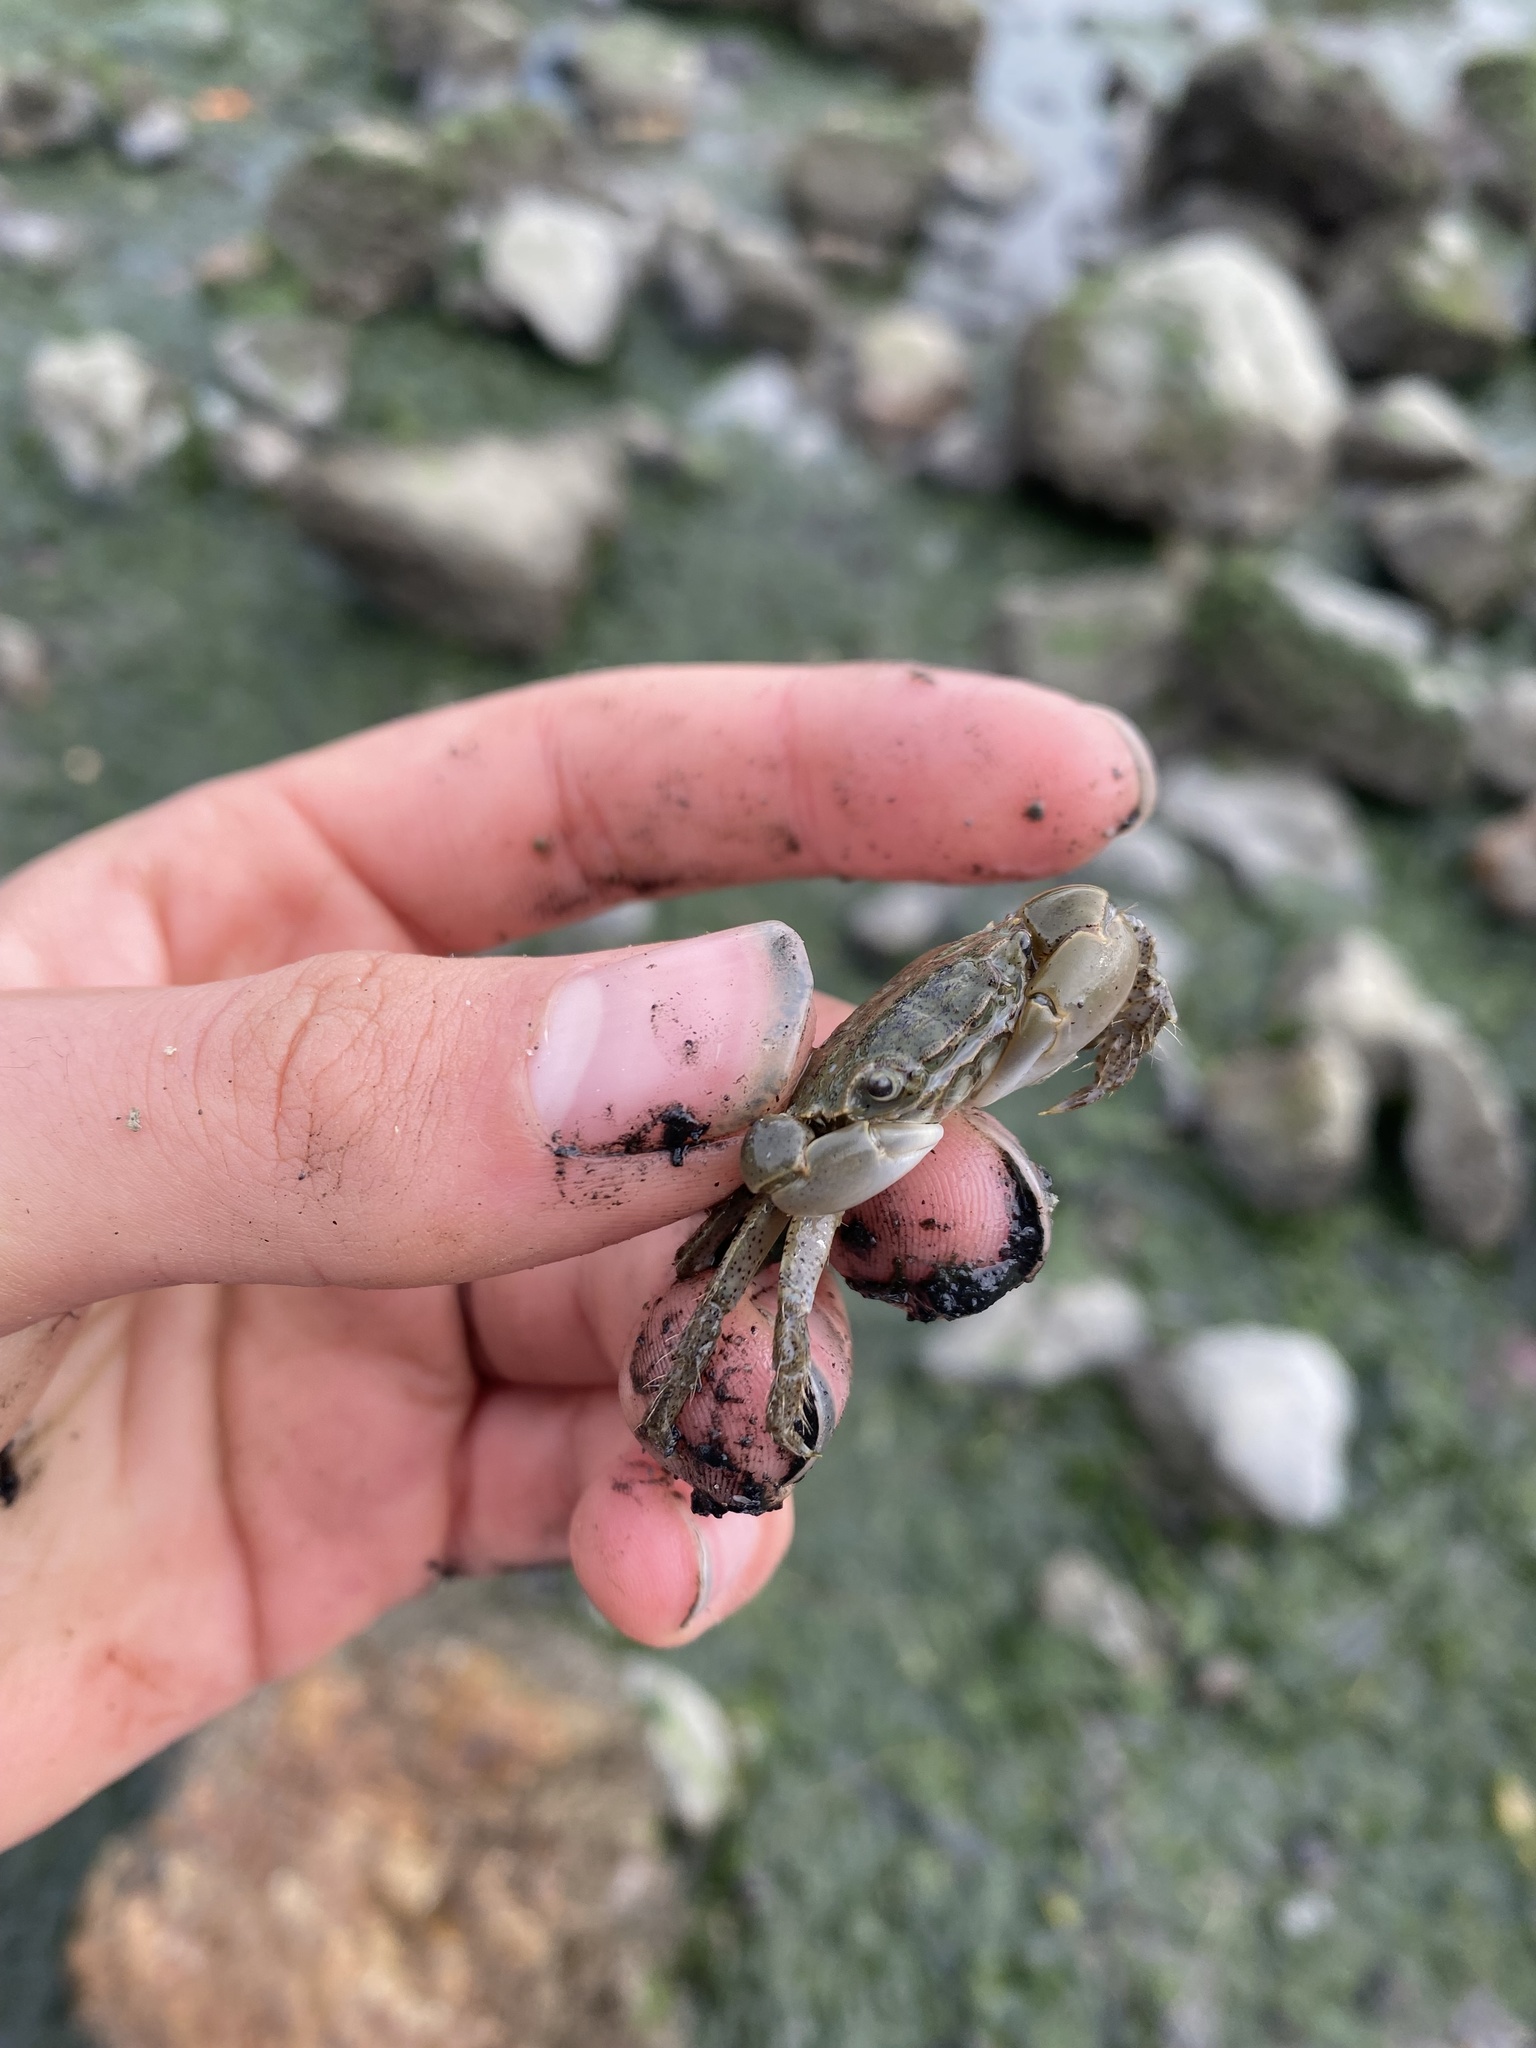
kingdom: Animalia
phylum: Arthropoda
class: Malacostraca
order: Decapoda
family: Varunidae
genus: Hemigrapsus
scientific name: Hemigrapsus oregonensis
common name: Yellow shore crab
